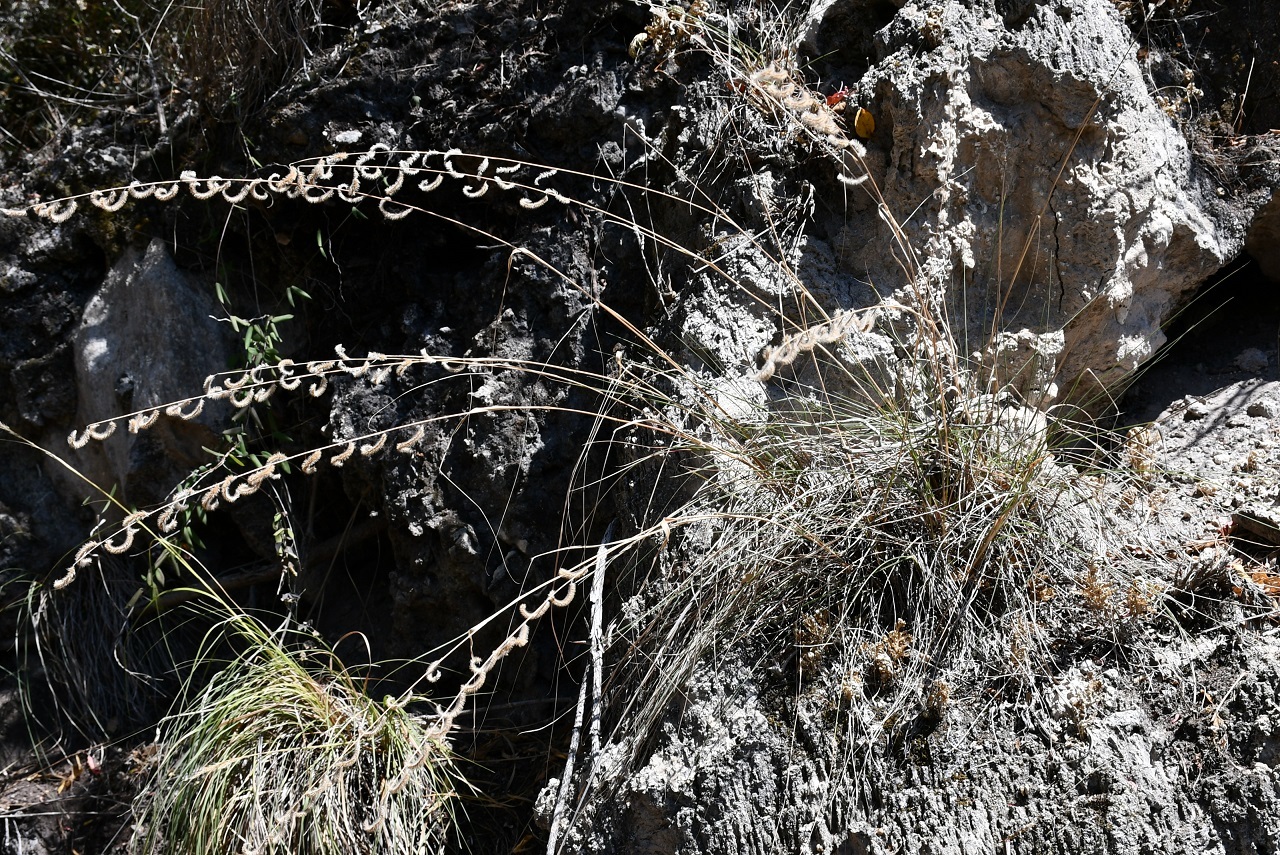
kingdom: Plantae
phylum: Tracheophyta
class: Liliopsida
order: Poales
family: Poaceae
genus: Bouteloua
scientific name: Bouteloua elata
